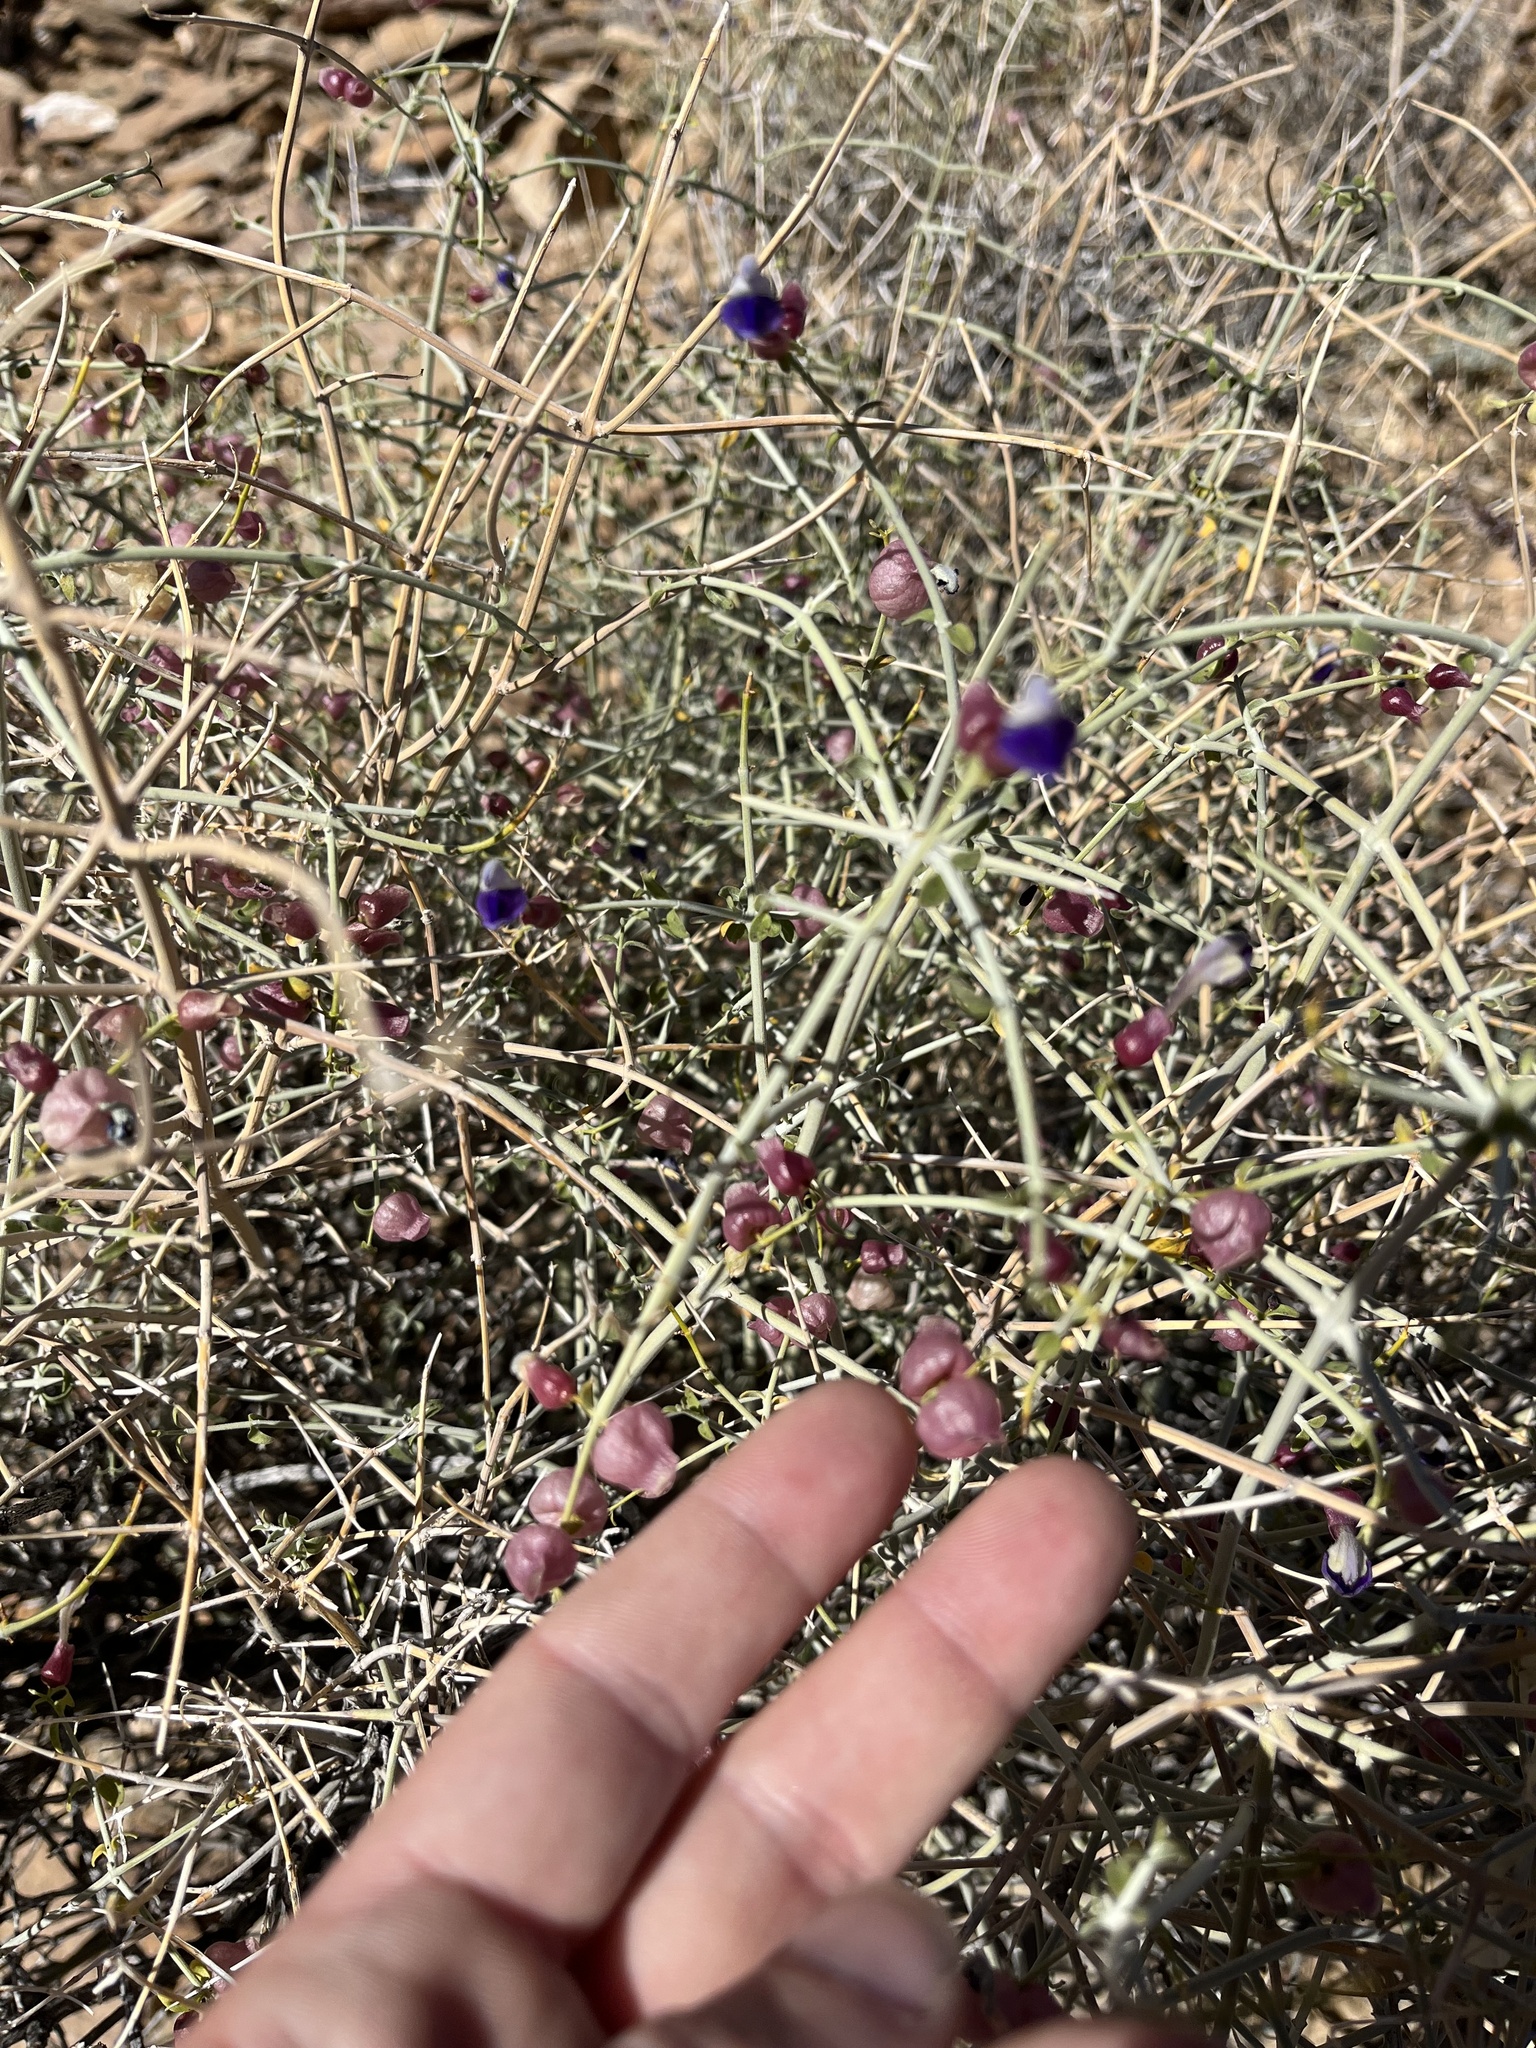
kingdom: Plantae
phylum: Tracheophyta
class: Magnoliopsida
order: Lamiales
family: Lamiaceae
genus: Scutellaria
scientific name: Scutellaria mexicana
